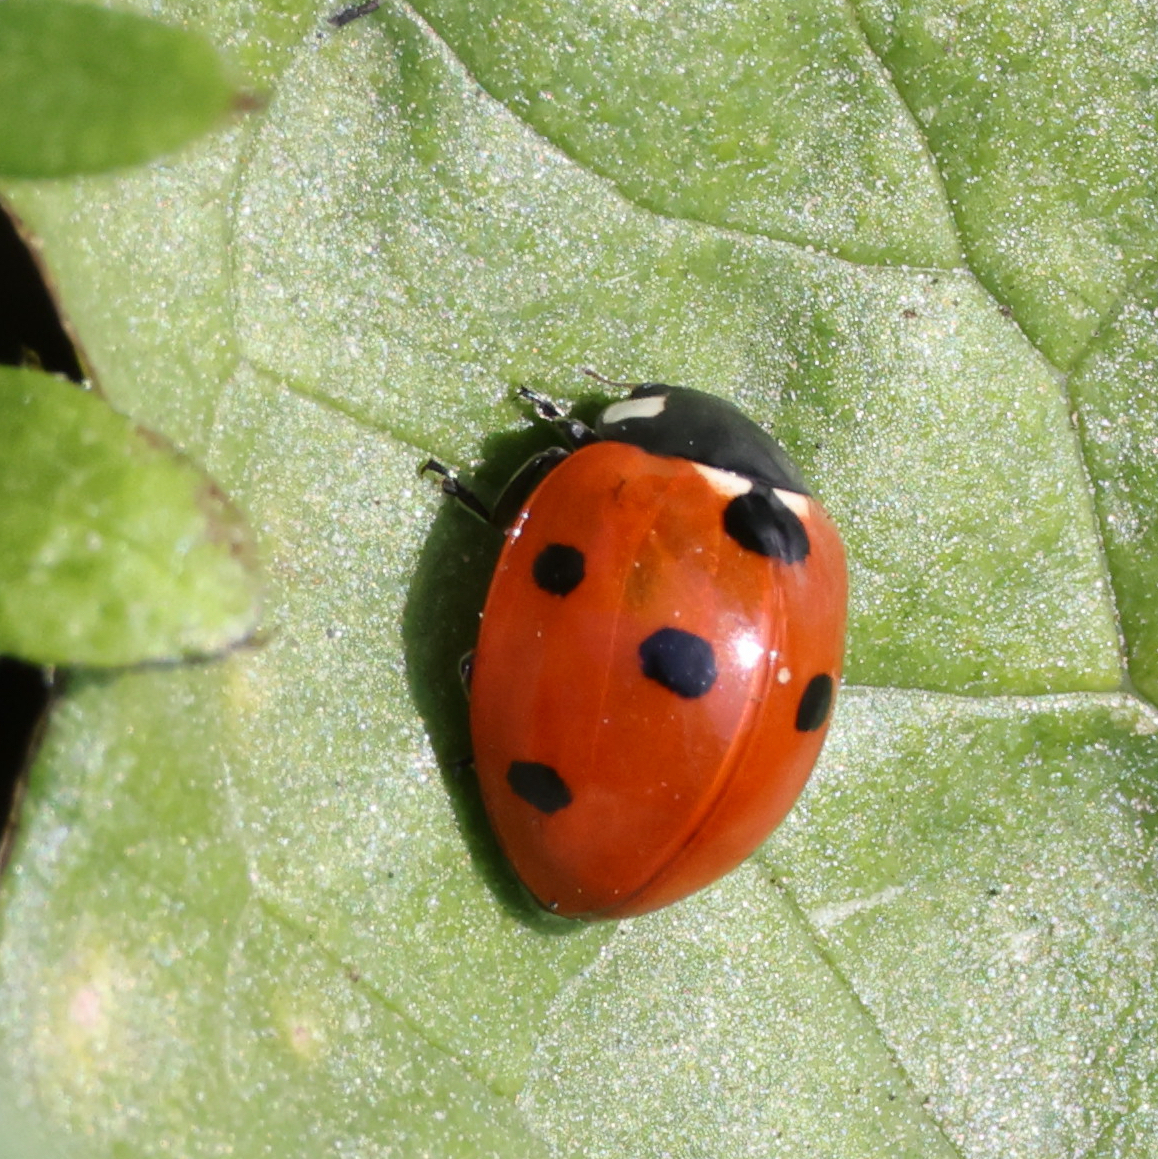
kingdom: Animalia
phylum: Arthropoda
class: Insecta
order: Coleoptera
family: Coccinellidae
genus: Coccinella
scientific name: Coccinella septempunctata
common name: Sevenspotted lady beetle
